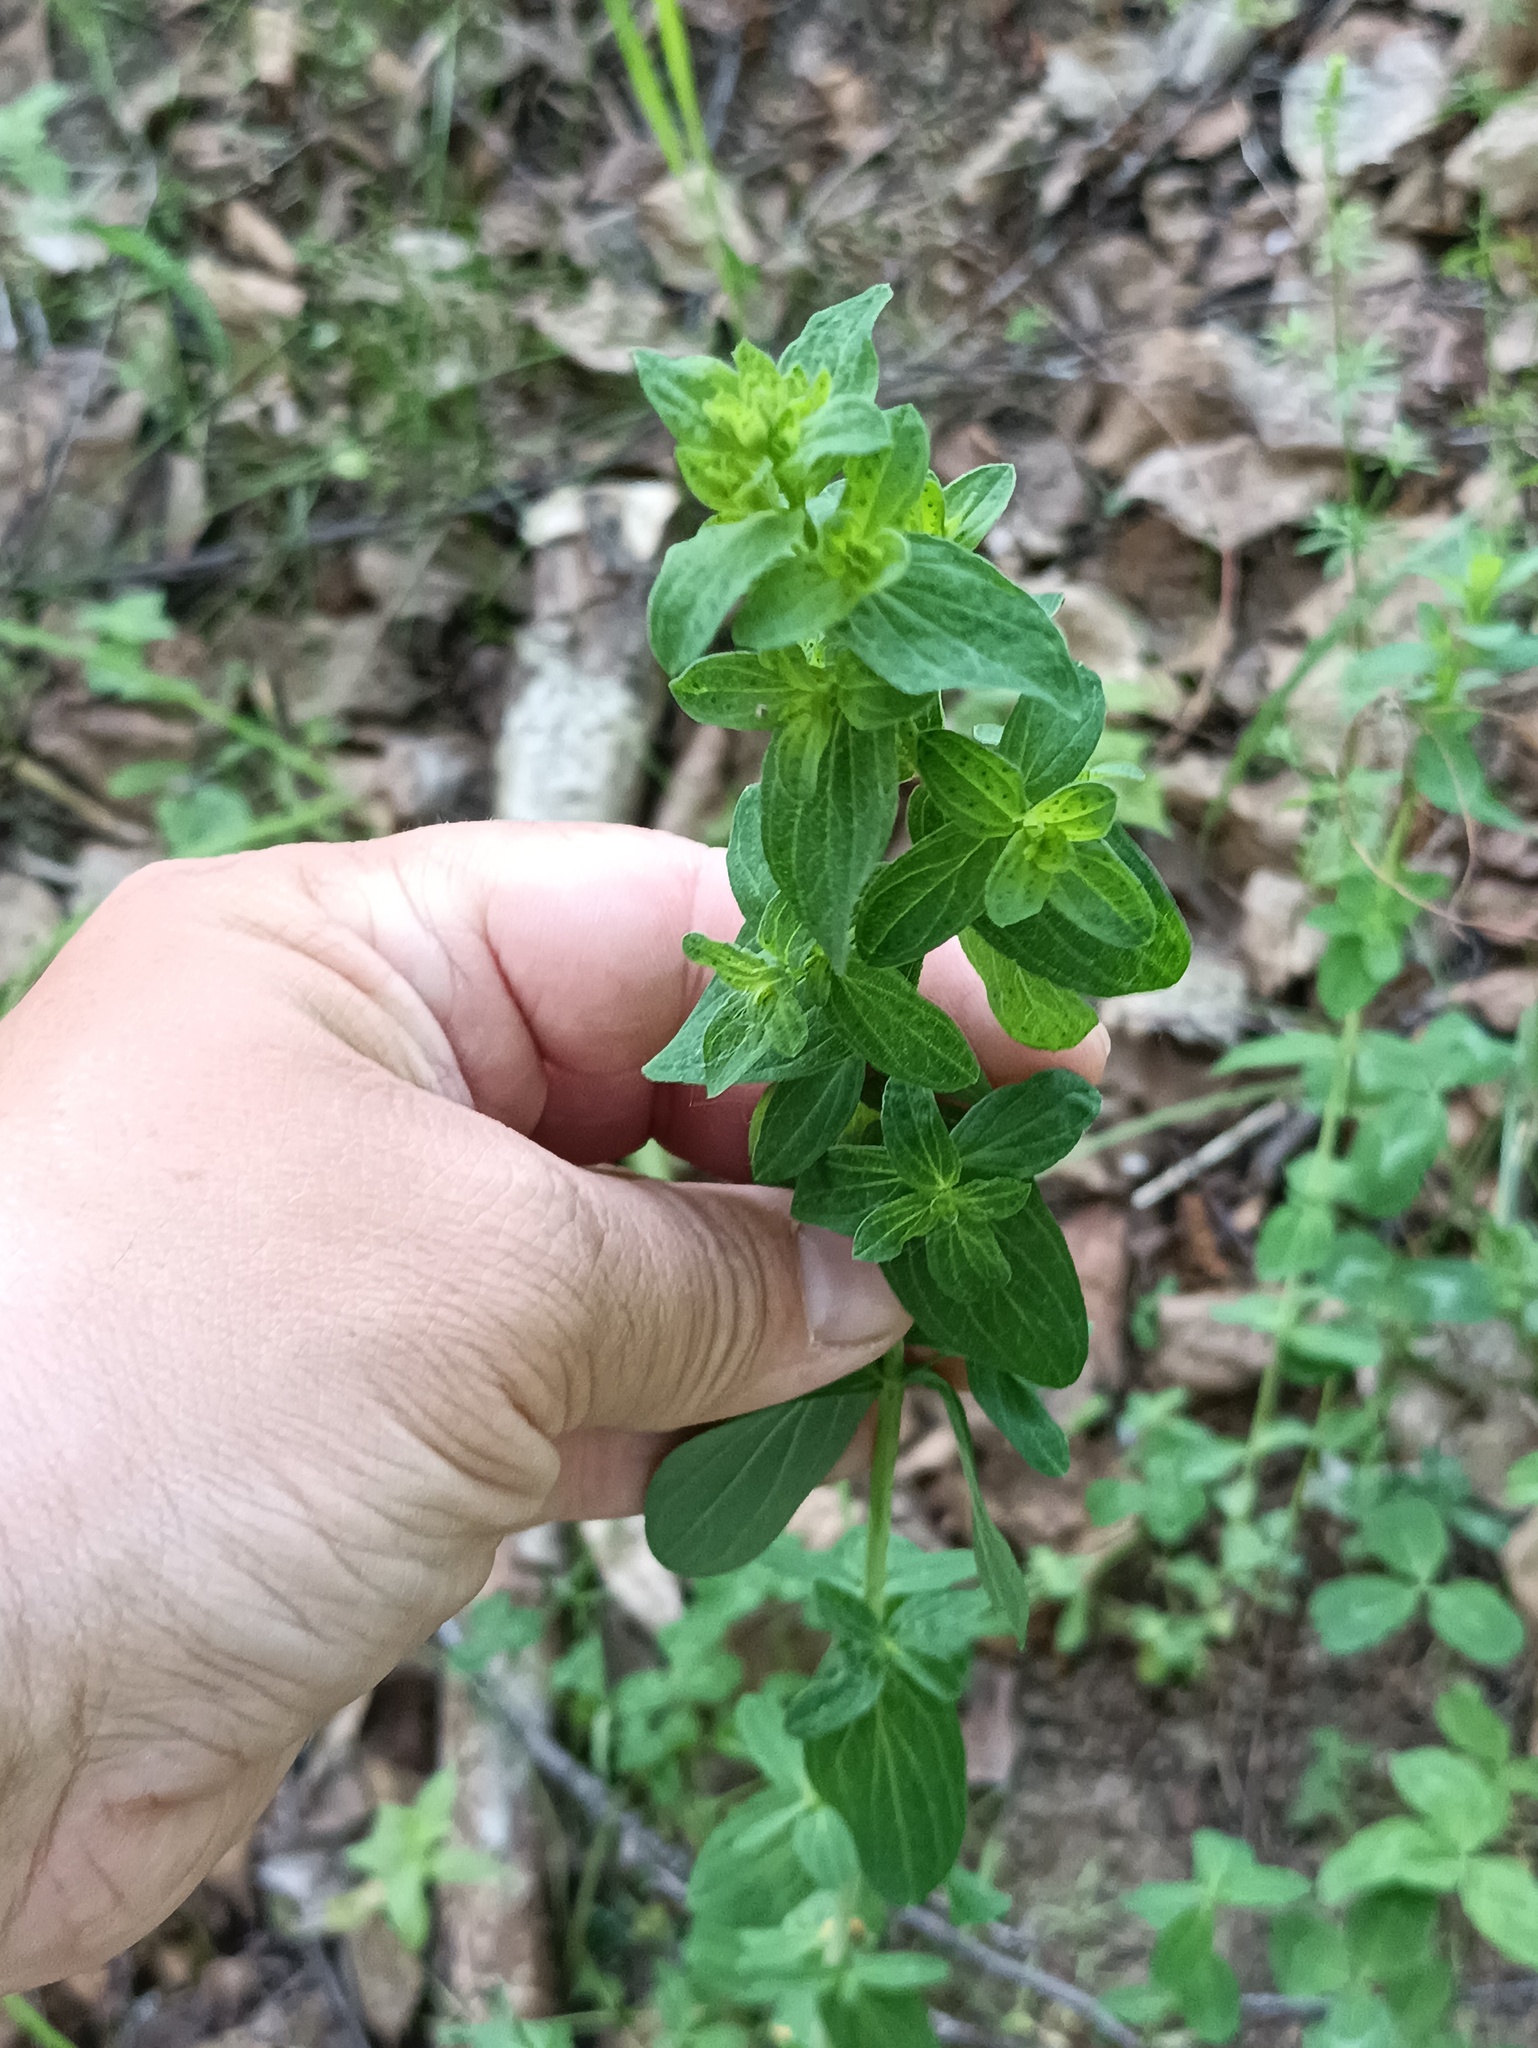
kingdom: Plantae
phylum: Tracheophyta
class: Magnoliopsida
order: Malpighiales
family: Hypericaceae
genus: Hypericum
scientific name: Hypericum perforatum
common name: Common st. johnswort
